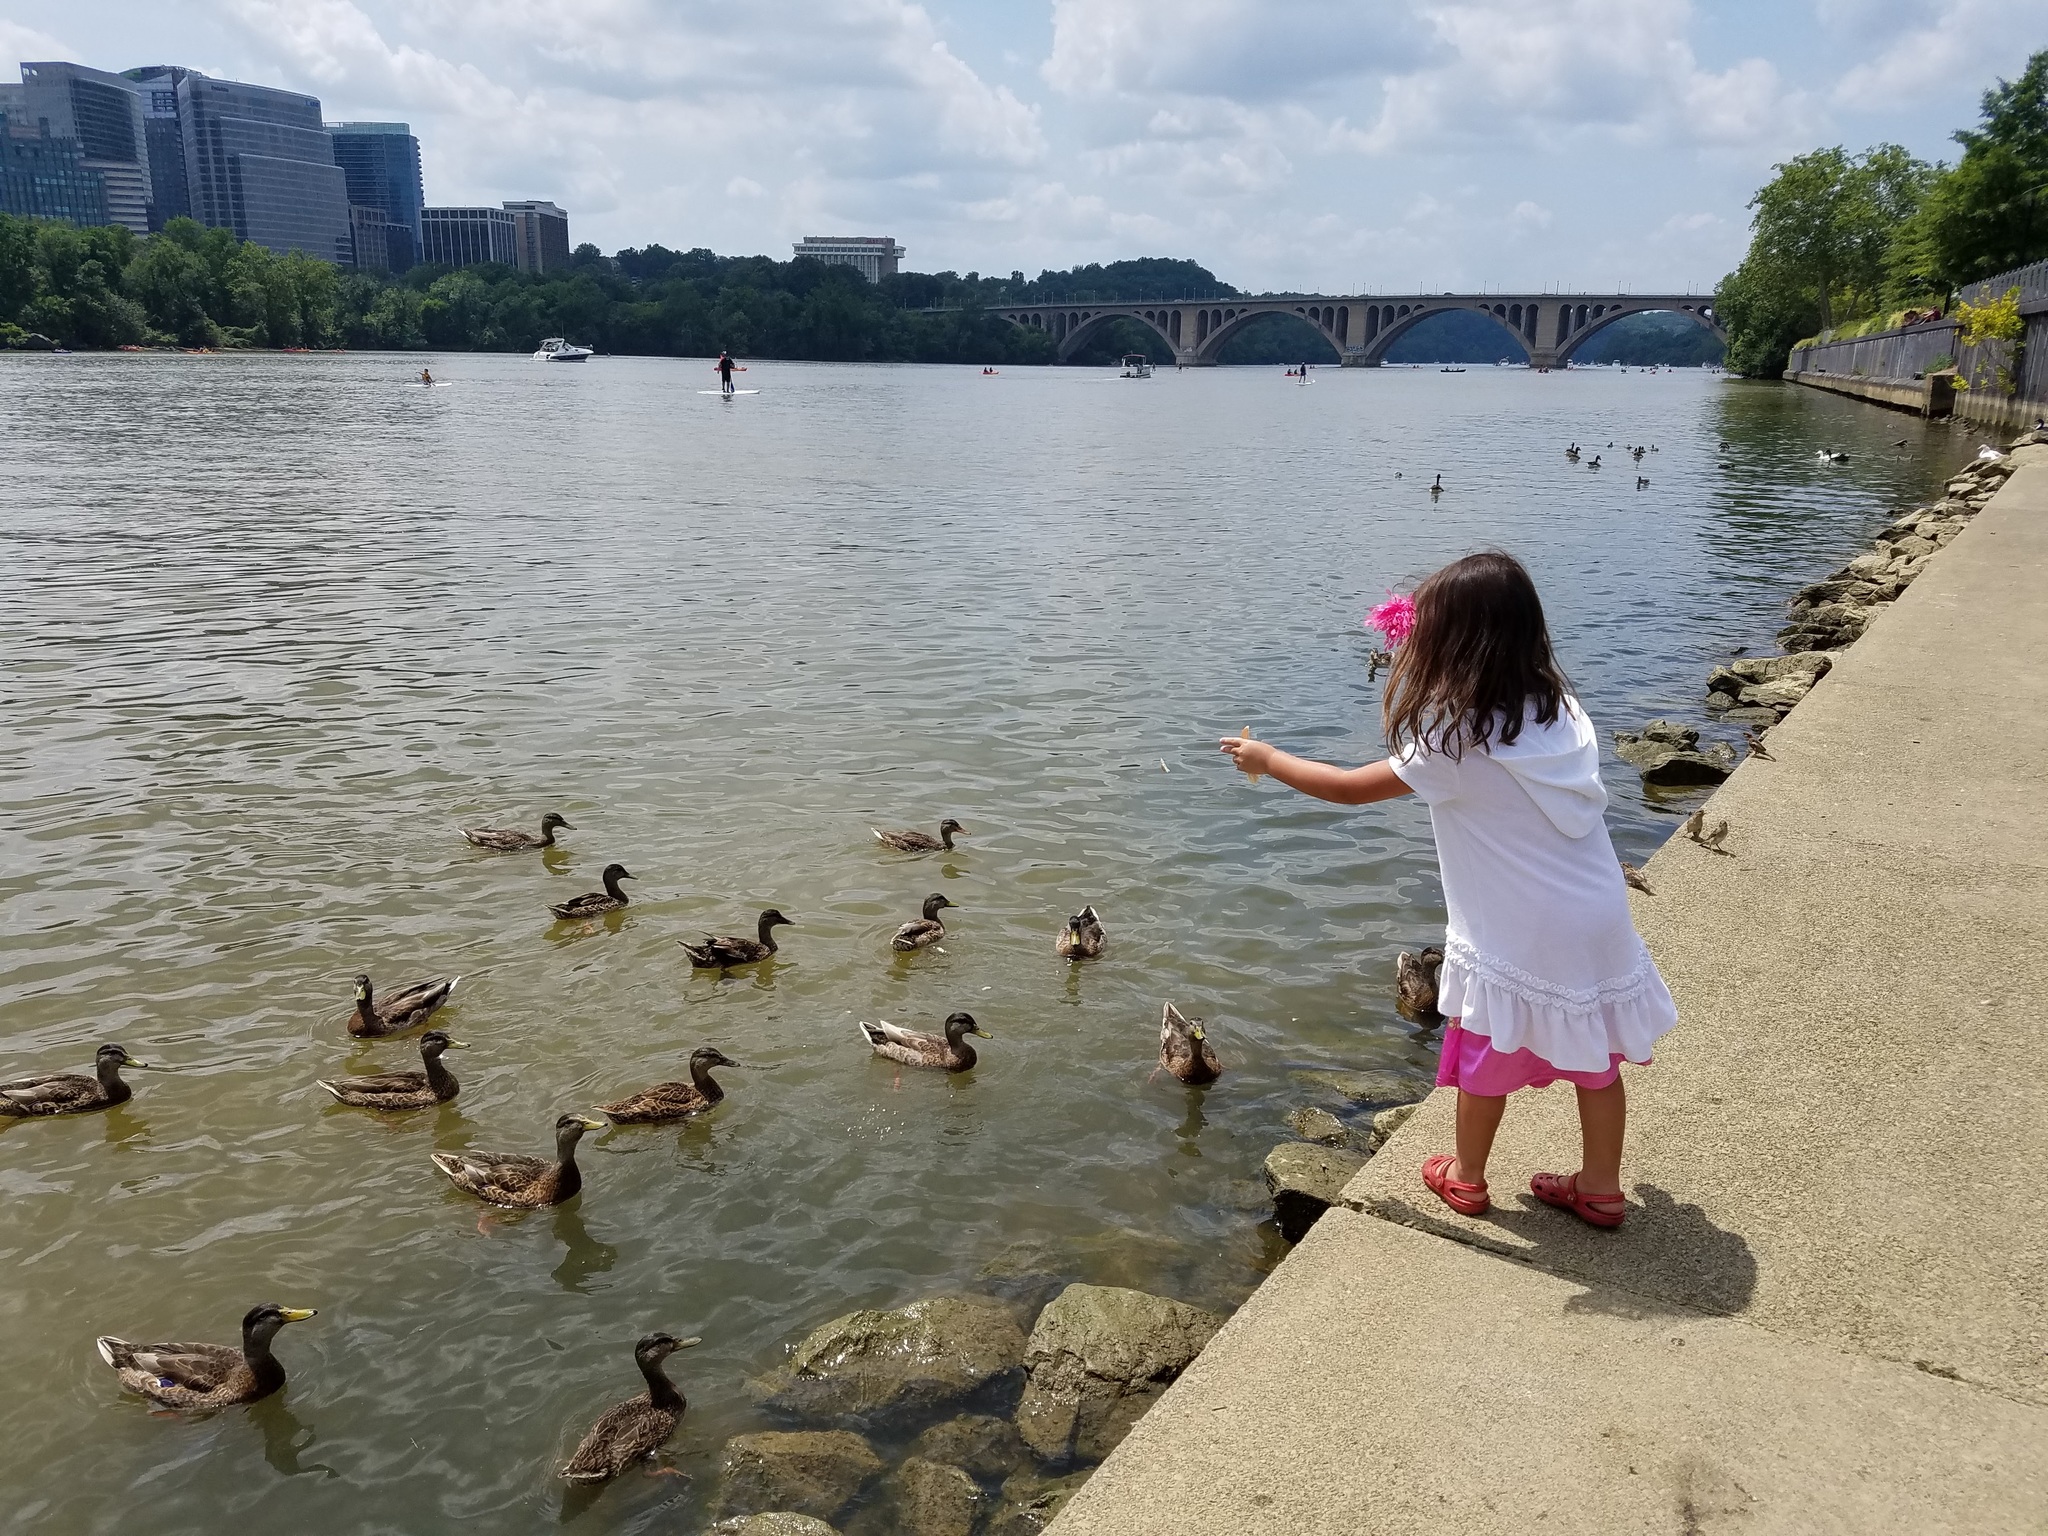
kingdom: Animalia
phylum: Chordata
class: Aves
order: Anseriformes
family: Anatidae
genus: Anas
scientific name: Anas platyrhynchos
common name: Mallard
